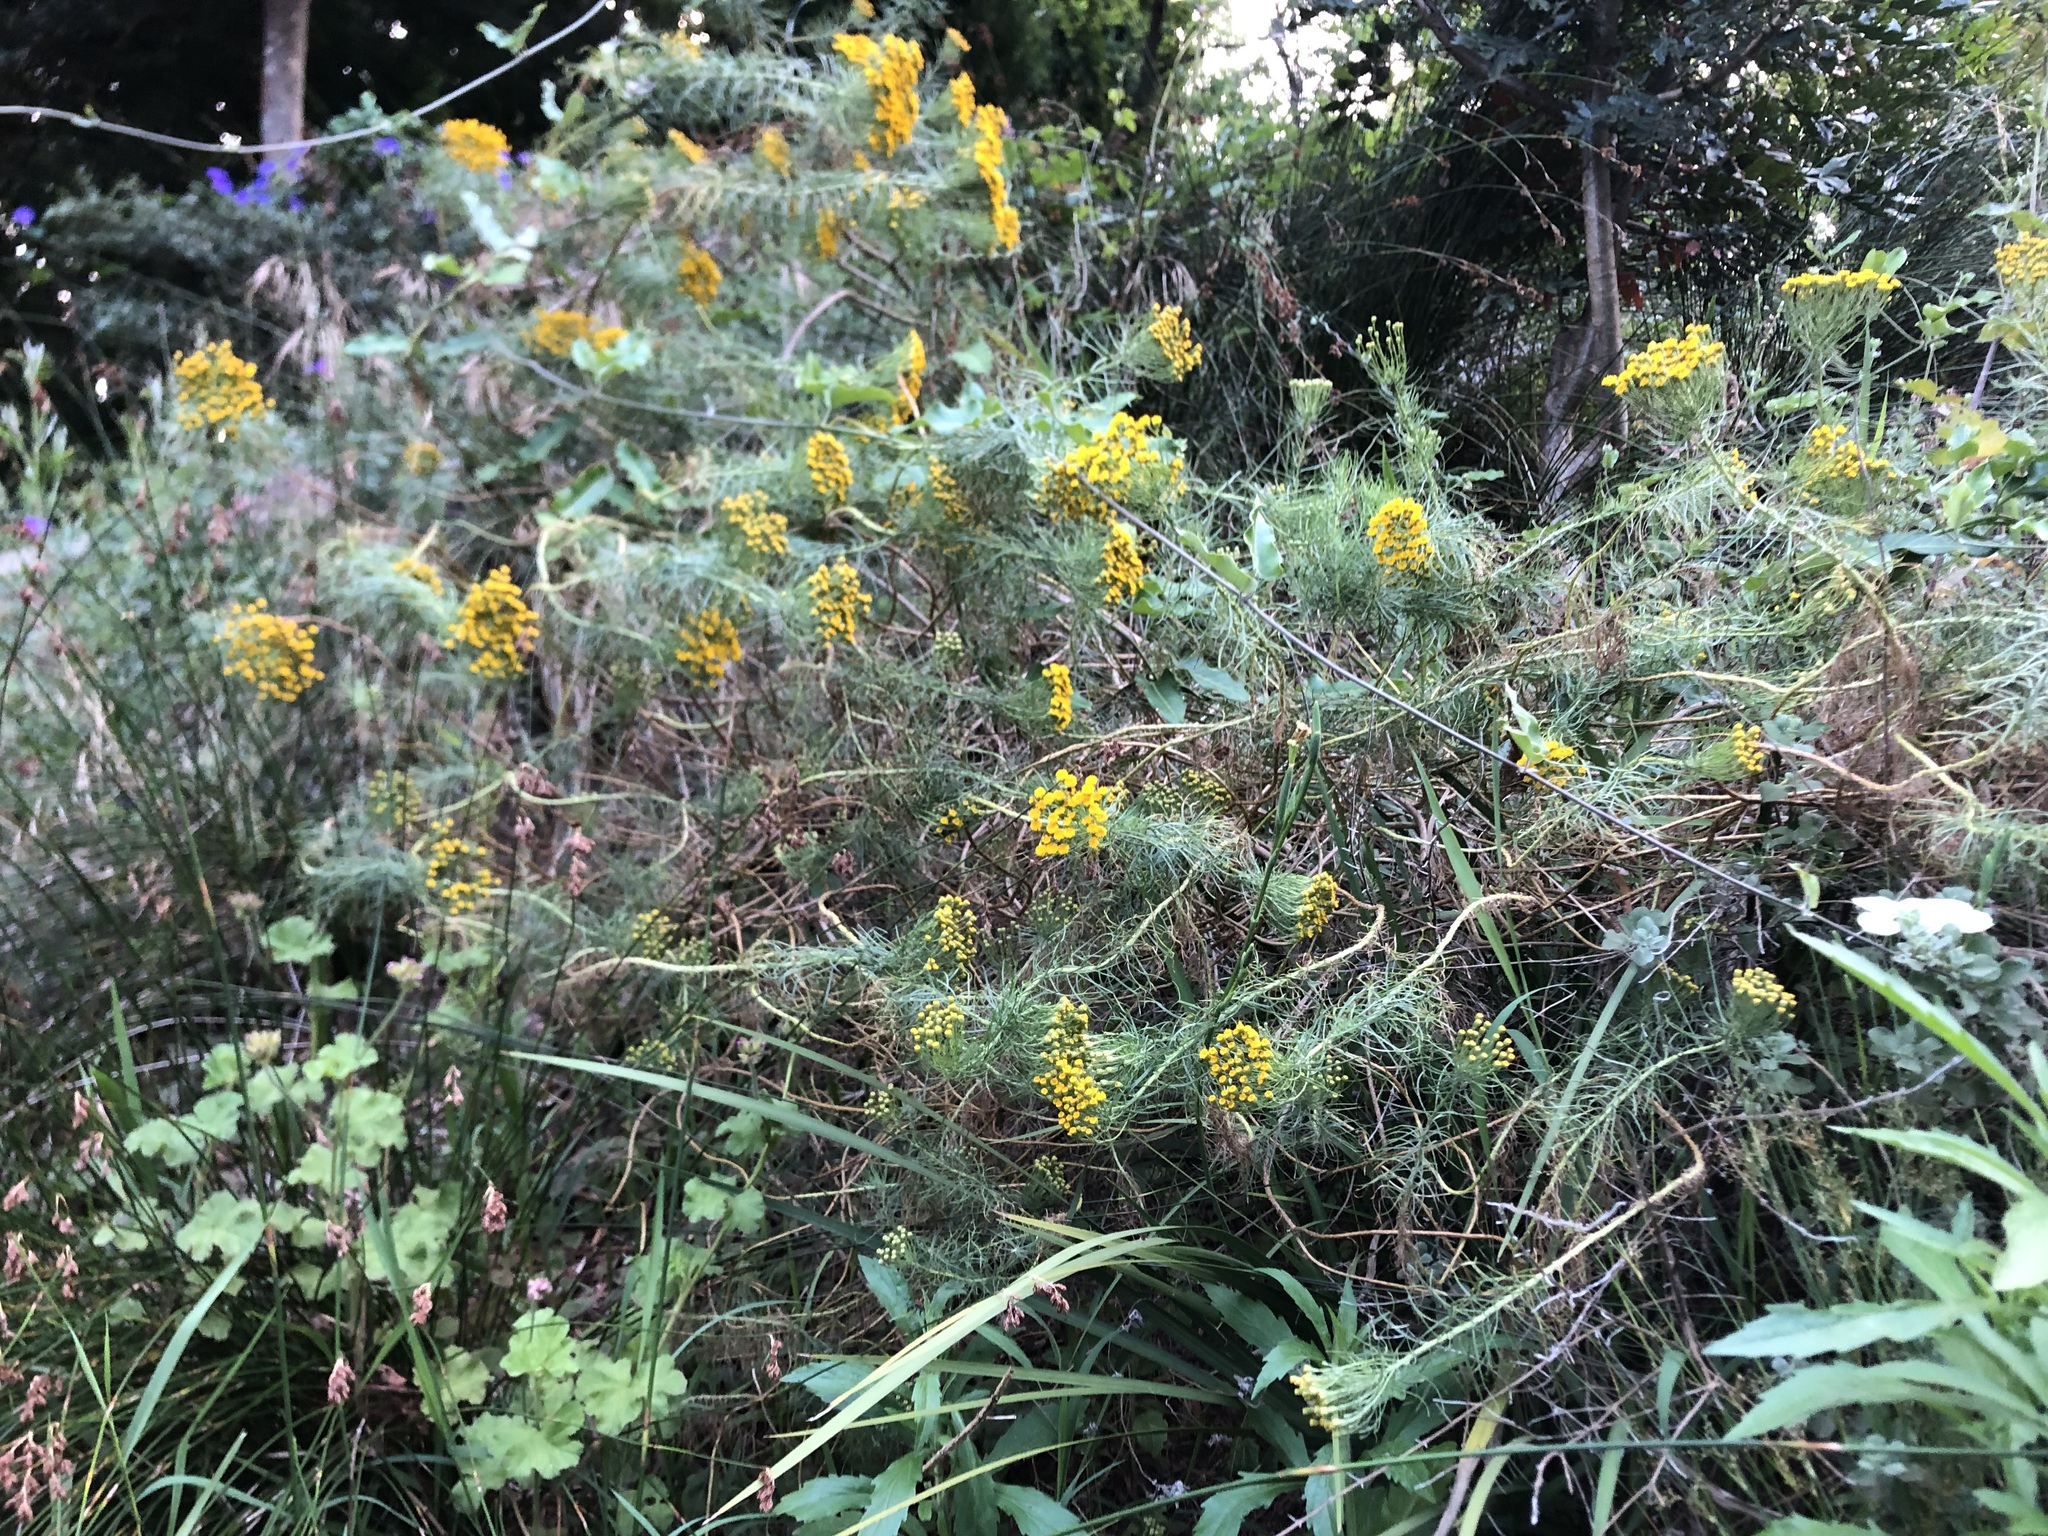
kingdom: Plantae
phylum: Tracheophyta
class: Magnoliopsida
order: Asterales
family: Asteraceae
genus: Athanasia
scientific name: Athanasia crithmifolia
